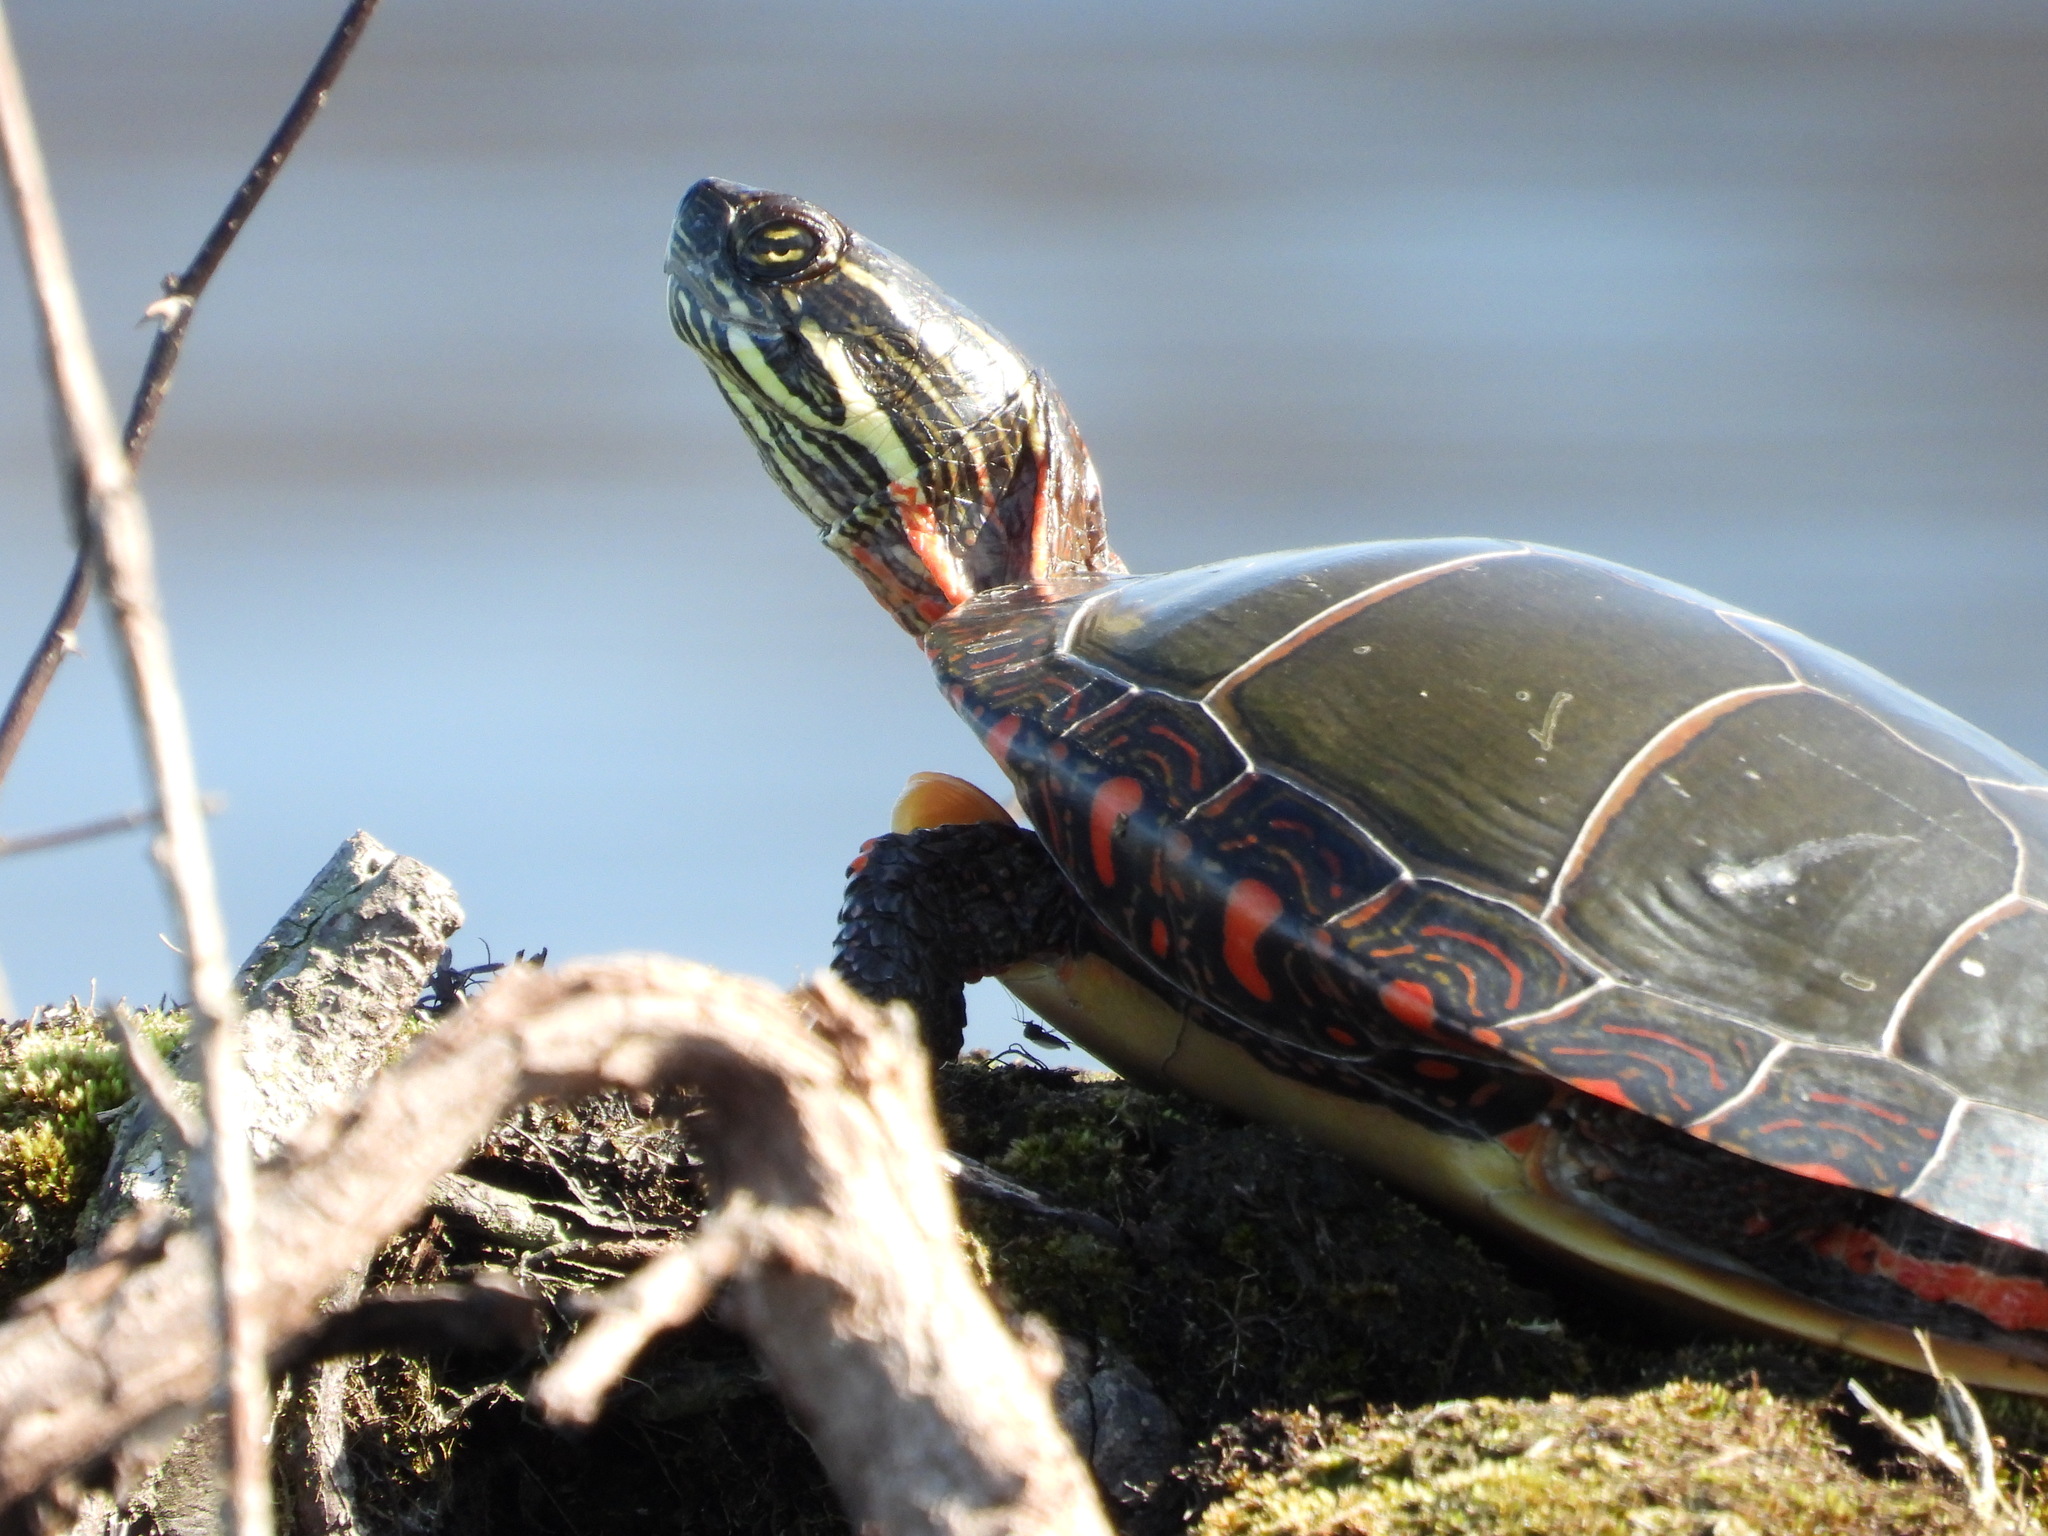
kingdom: Animalia
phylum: Chordata
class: Testudines
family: Emydidae
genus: Chrysemys
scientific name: Chrysemys picta
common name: Painted turtle
